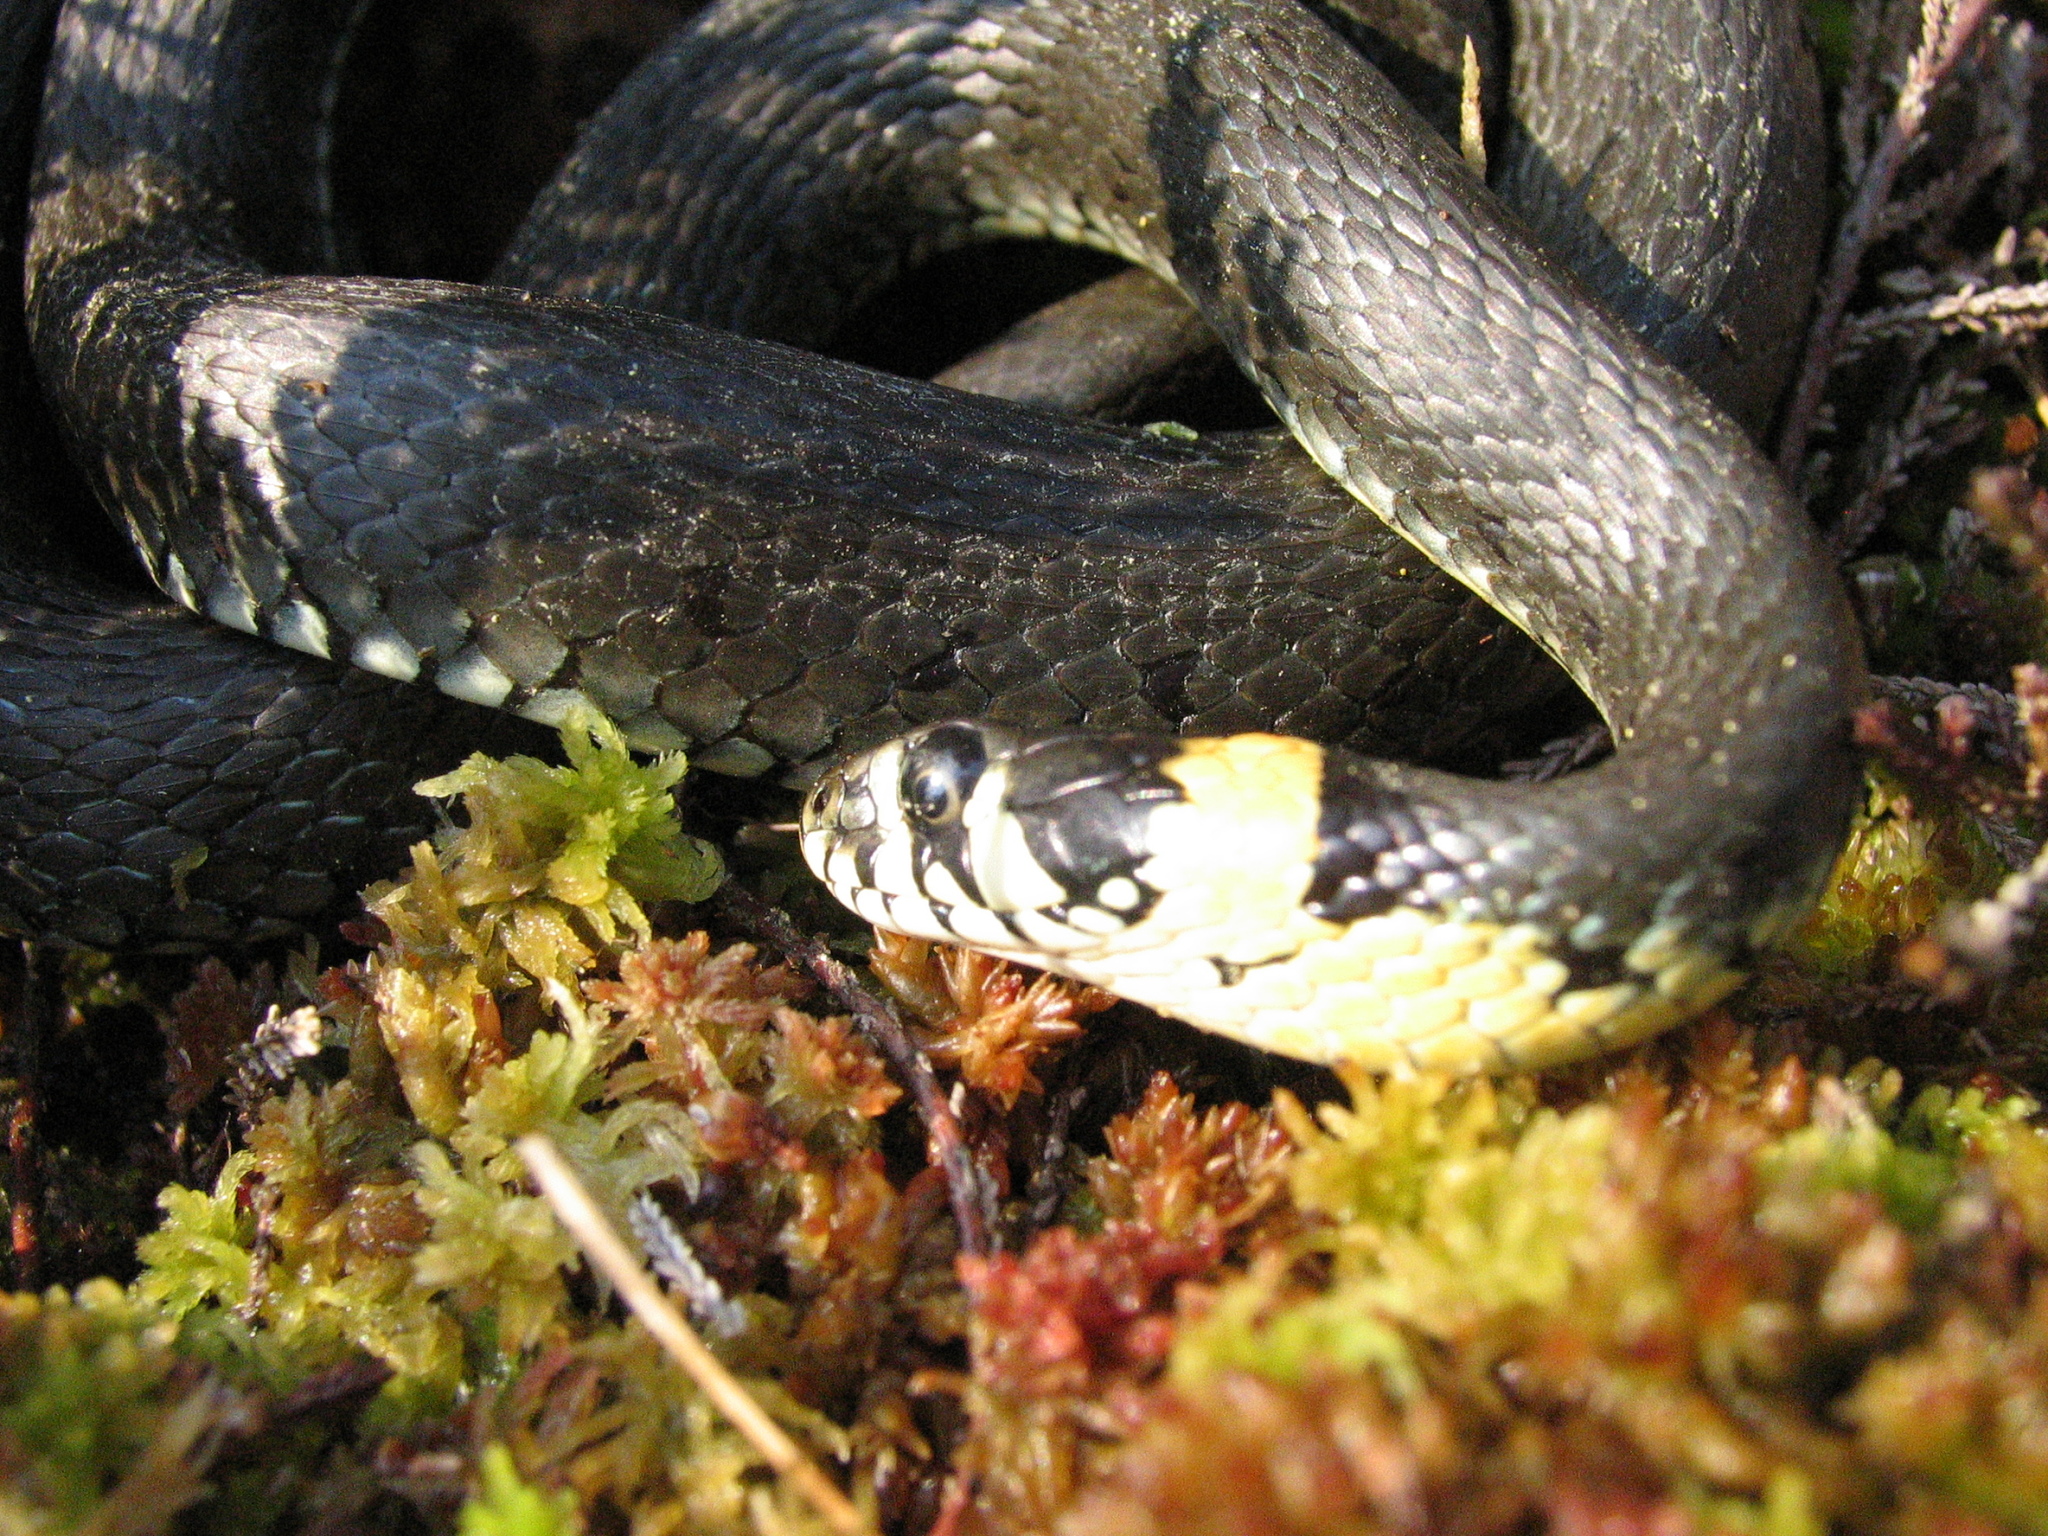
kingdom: Animalia
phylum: Chordata
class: Squamata
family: Colubridae
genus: Natrix
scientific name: Natrix natrix
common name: Grass snake
